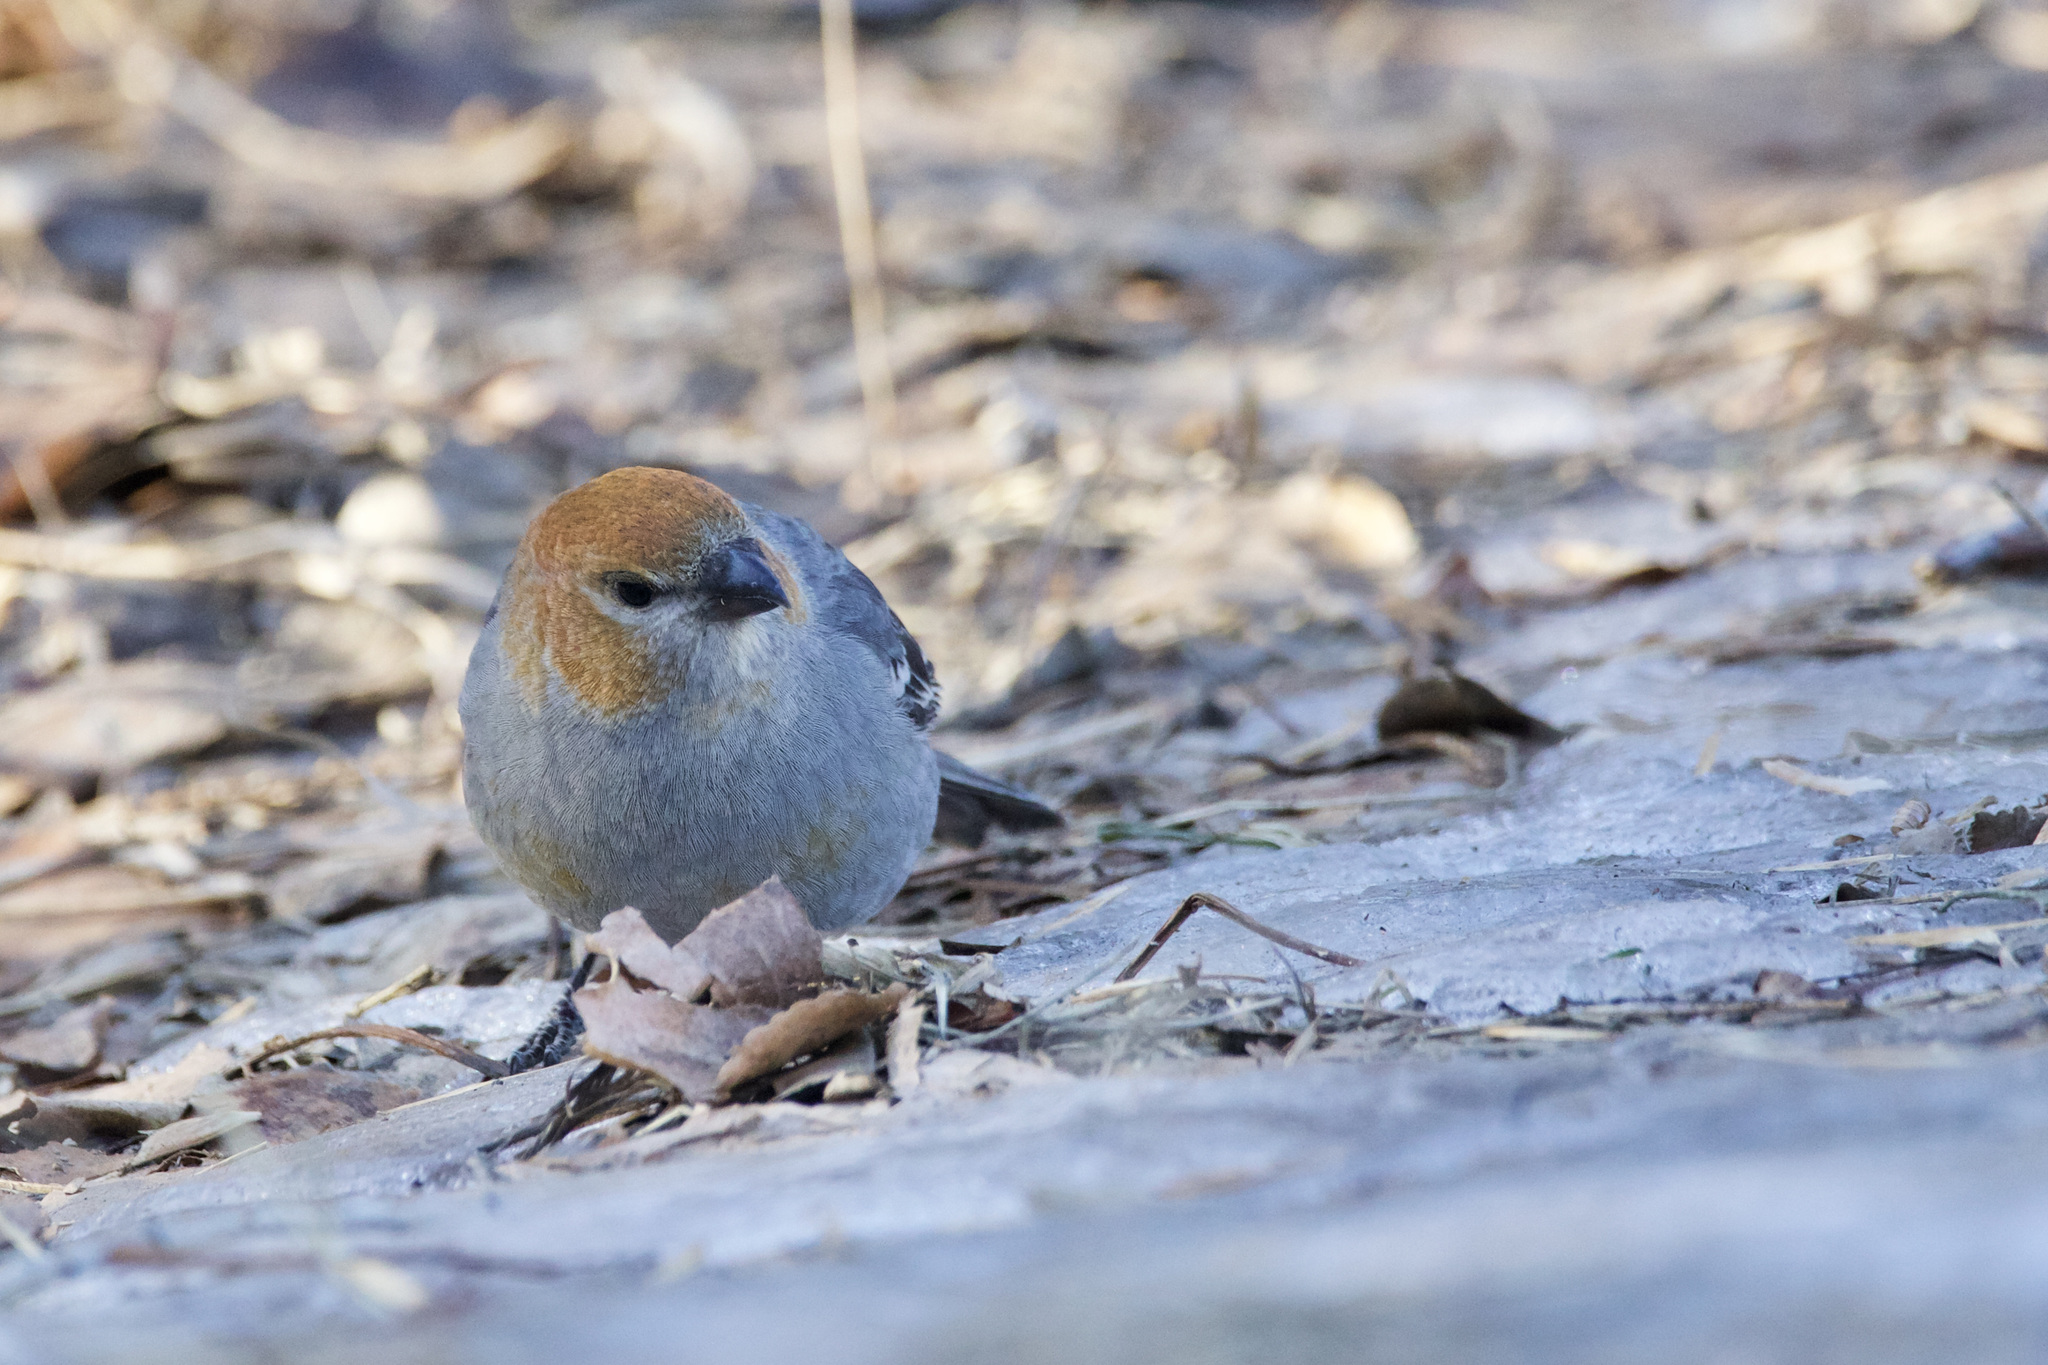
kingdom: Animalia
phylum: Chordata
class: Aves
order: Passeriformes
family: Fringillidae
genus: Pinicola
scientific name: Pinicola enucleator
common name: Pine grosbeak
